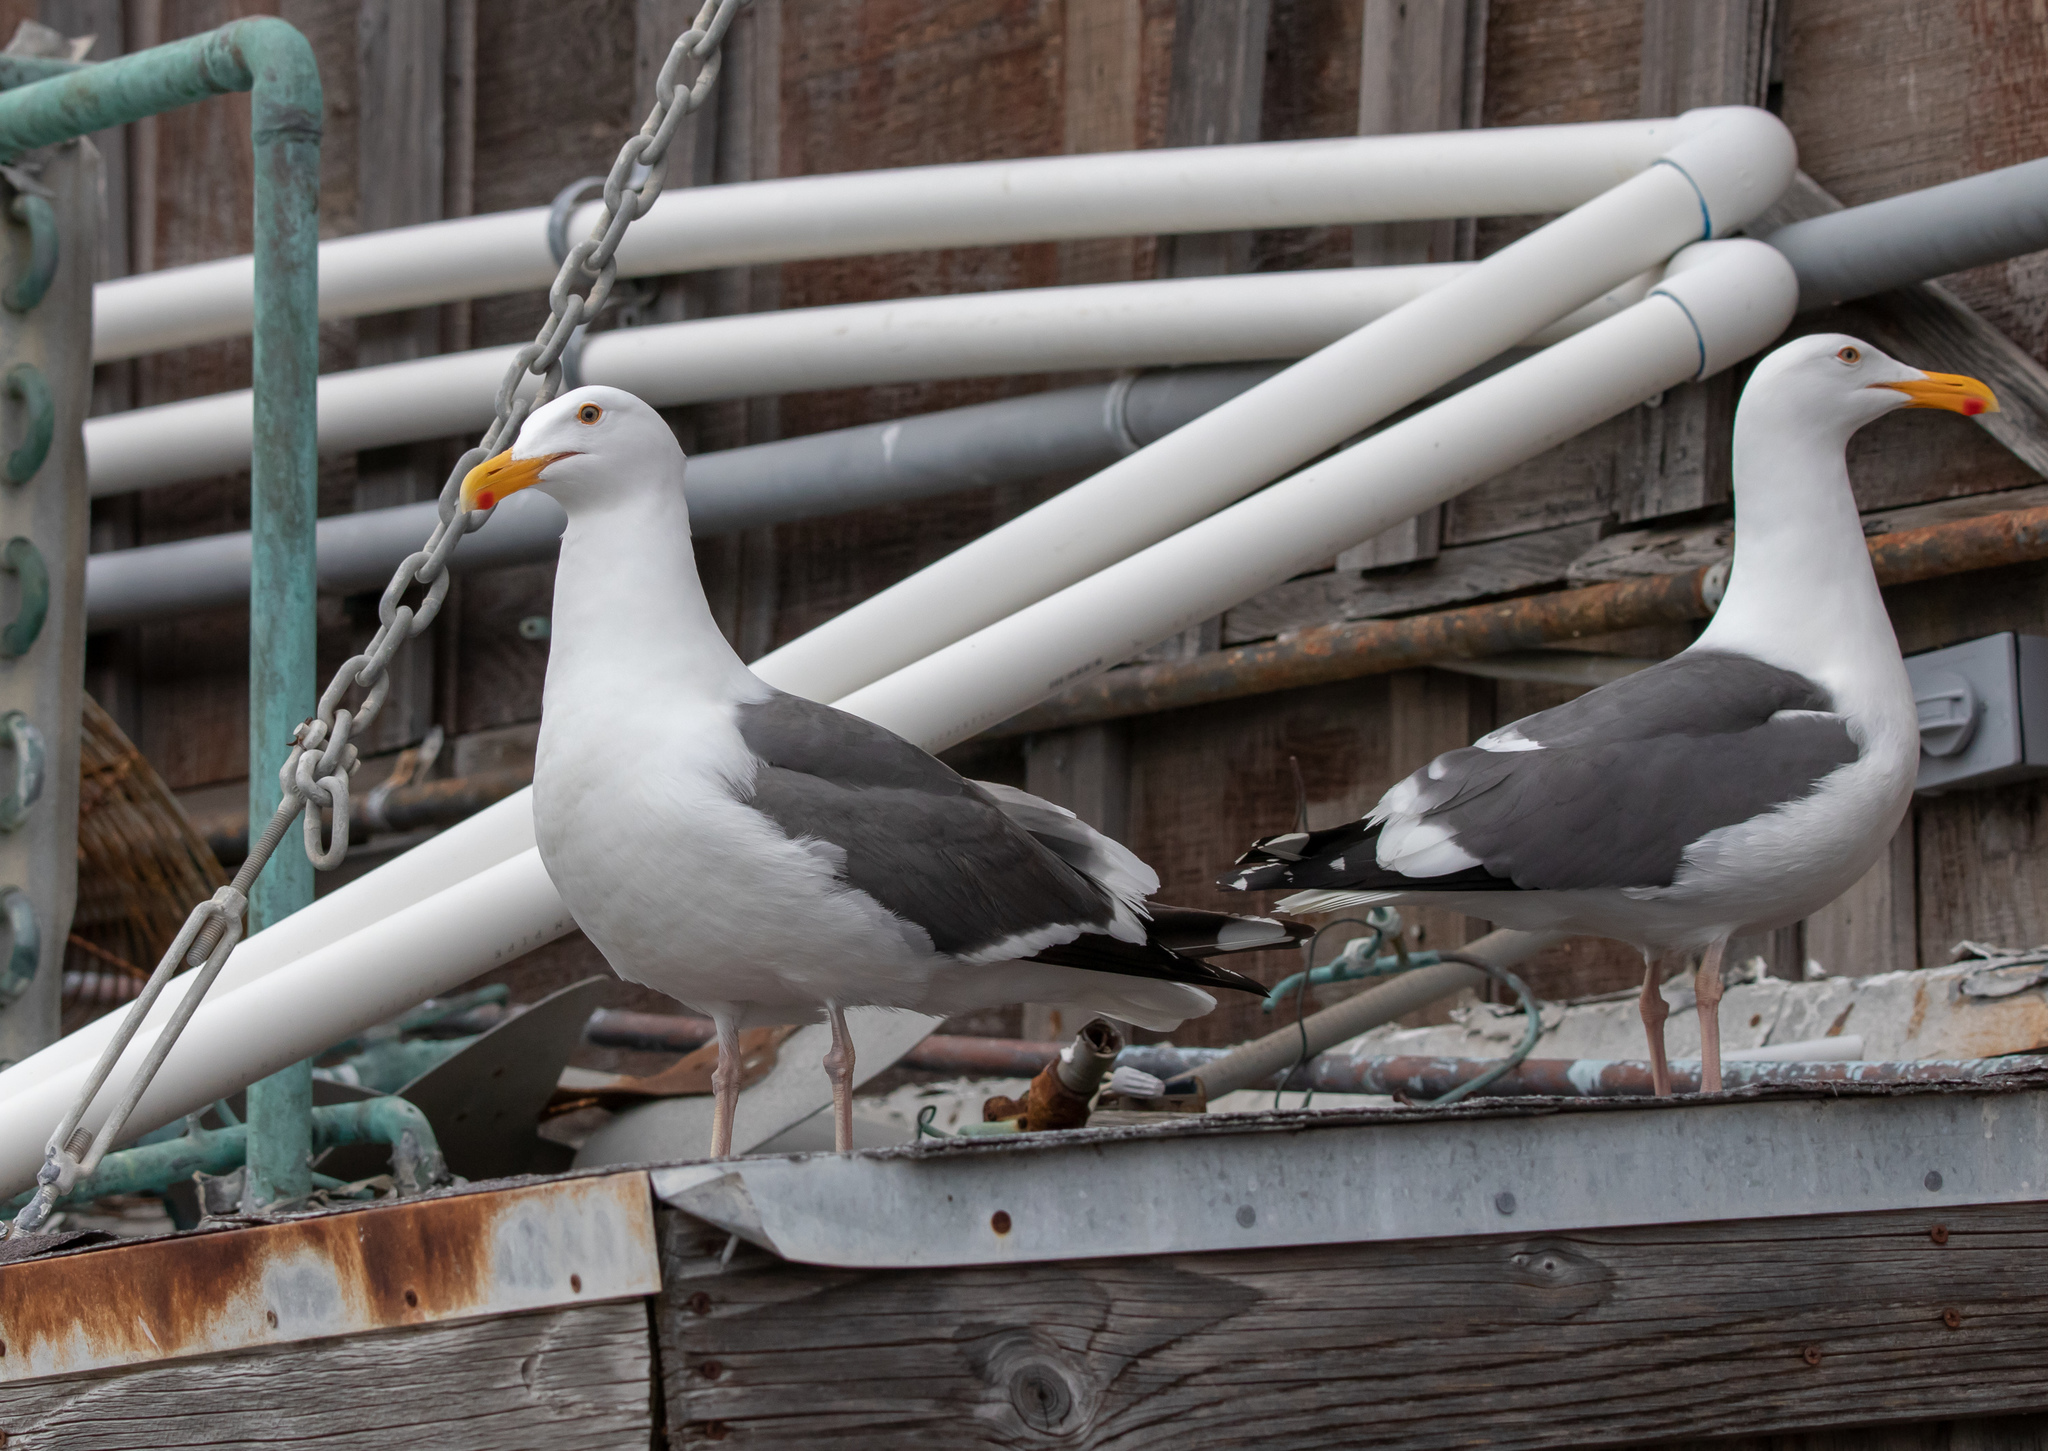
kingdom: Animalia
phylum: Chordata
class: Aves
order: Charadriiformes
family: Laridae
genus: Larus
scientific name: Larus occidentalis
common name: Western gull
